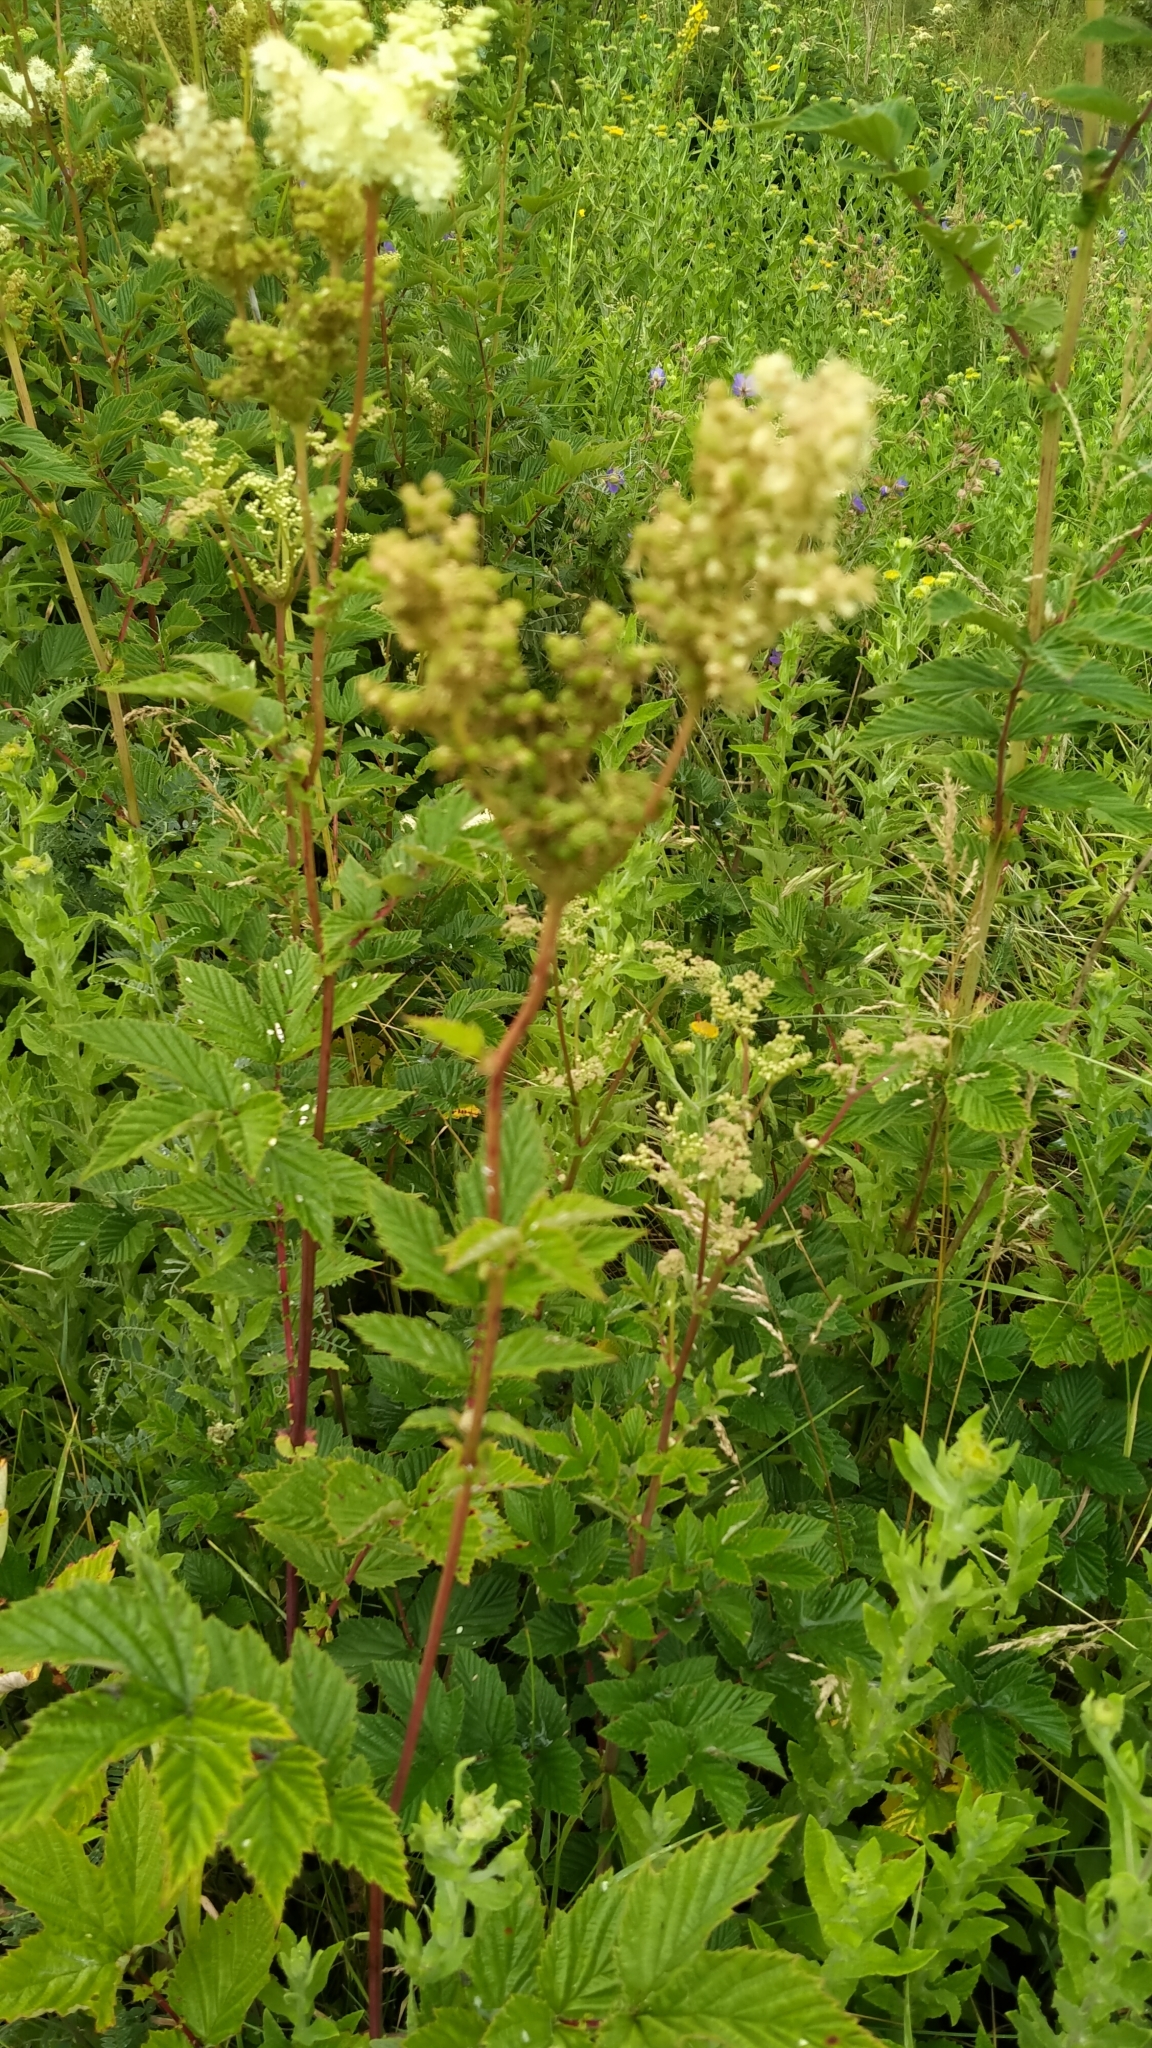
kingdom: Plantae
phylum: Tracheophyta
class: Magnoliopsida
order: Rosales
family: Rosaceae
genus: Filipendula
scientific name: Filipendula ulmaria
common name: Meadowsweet
